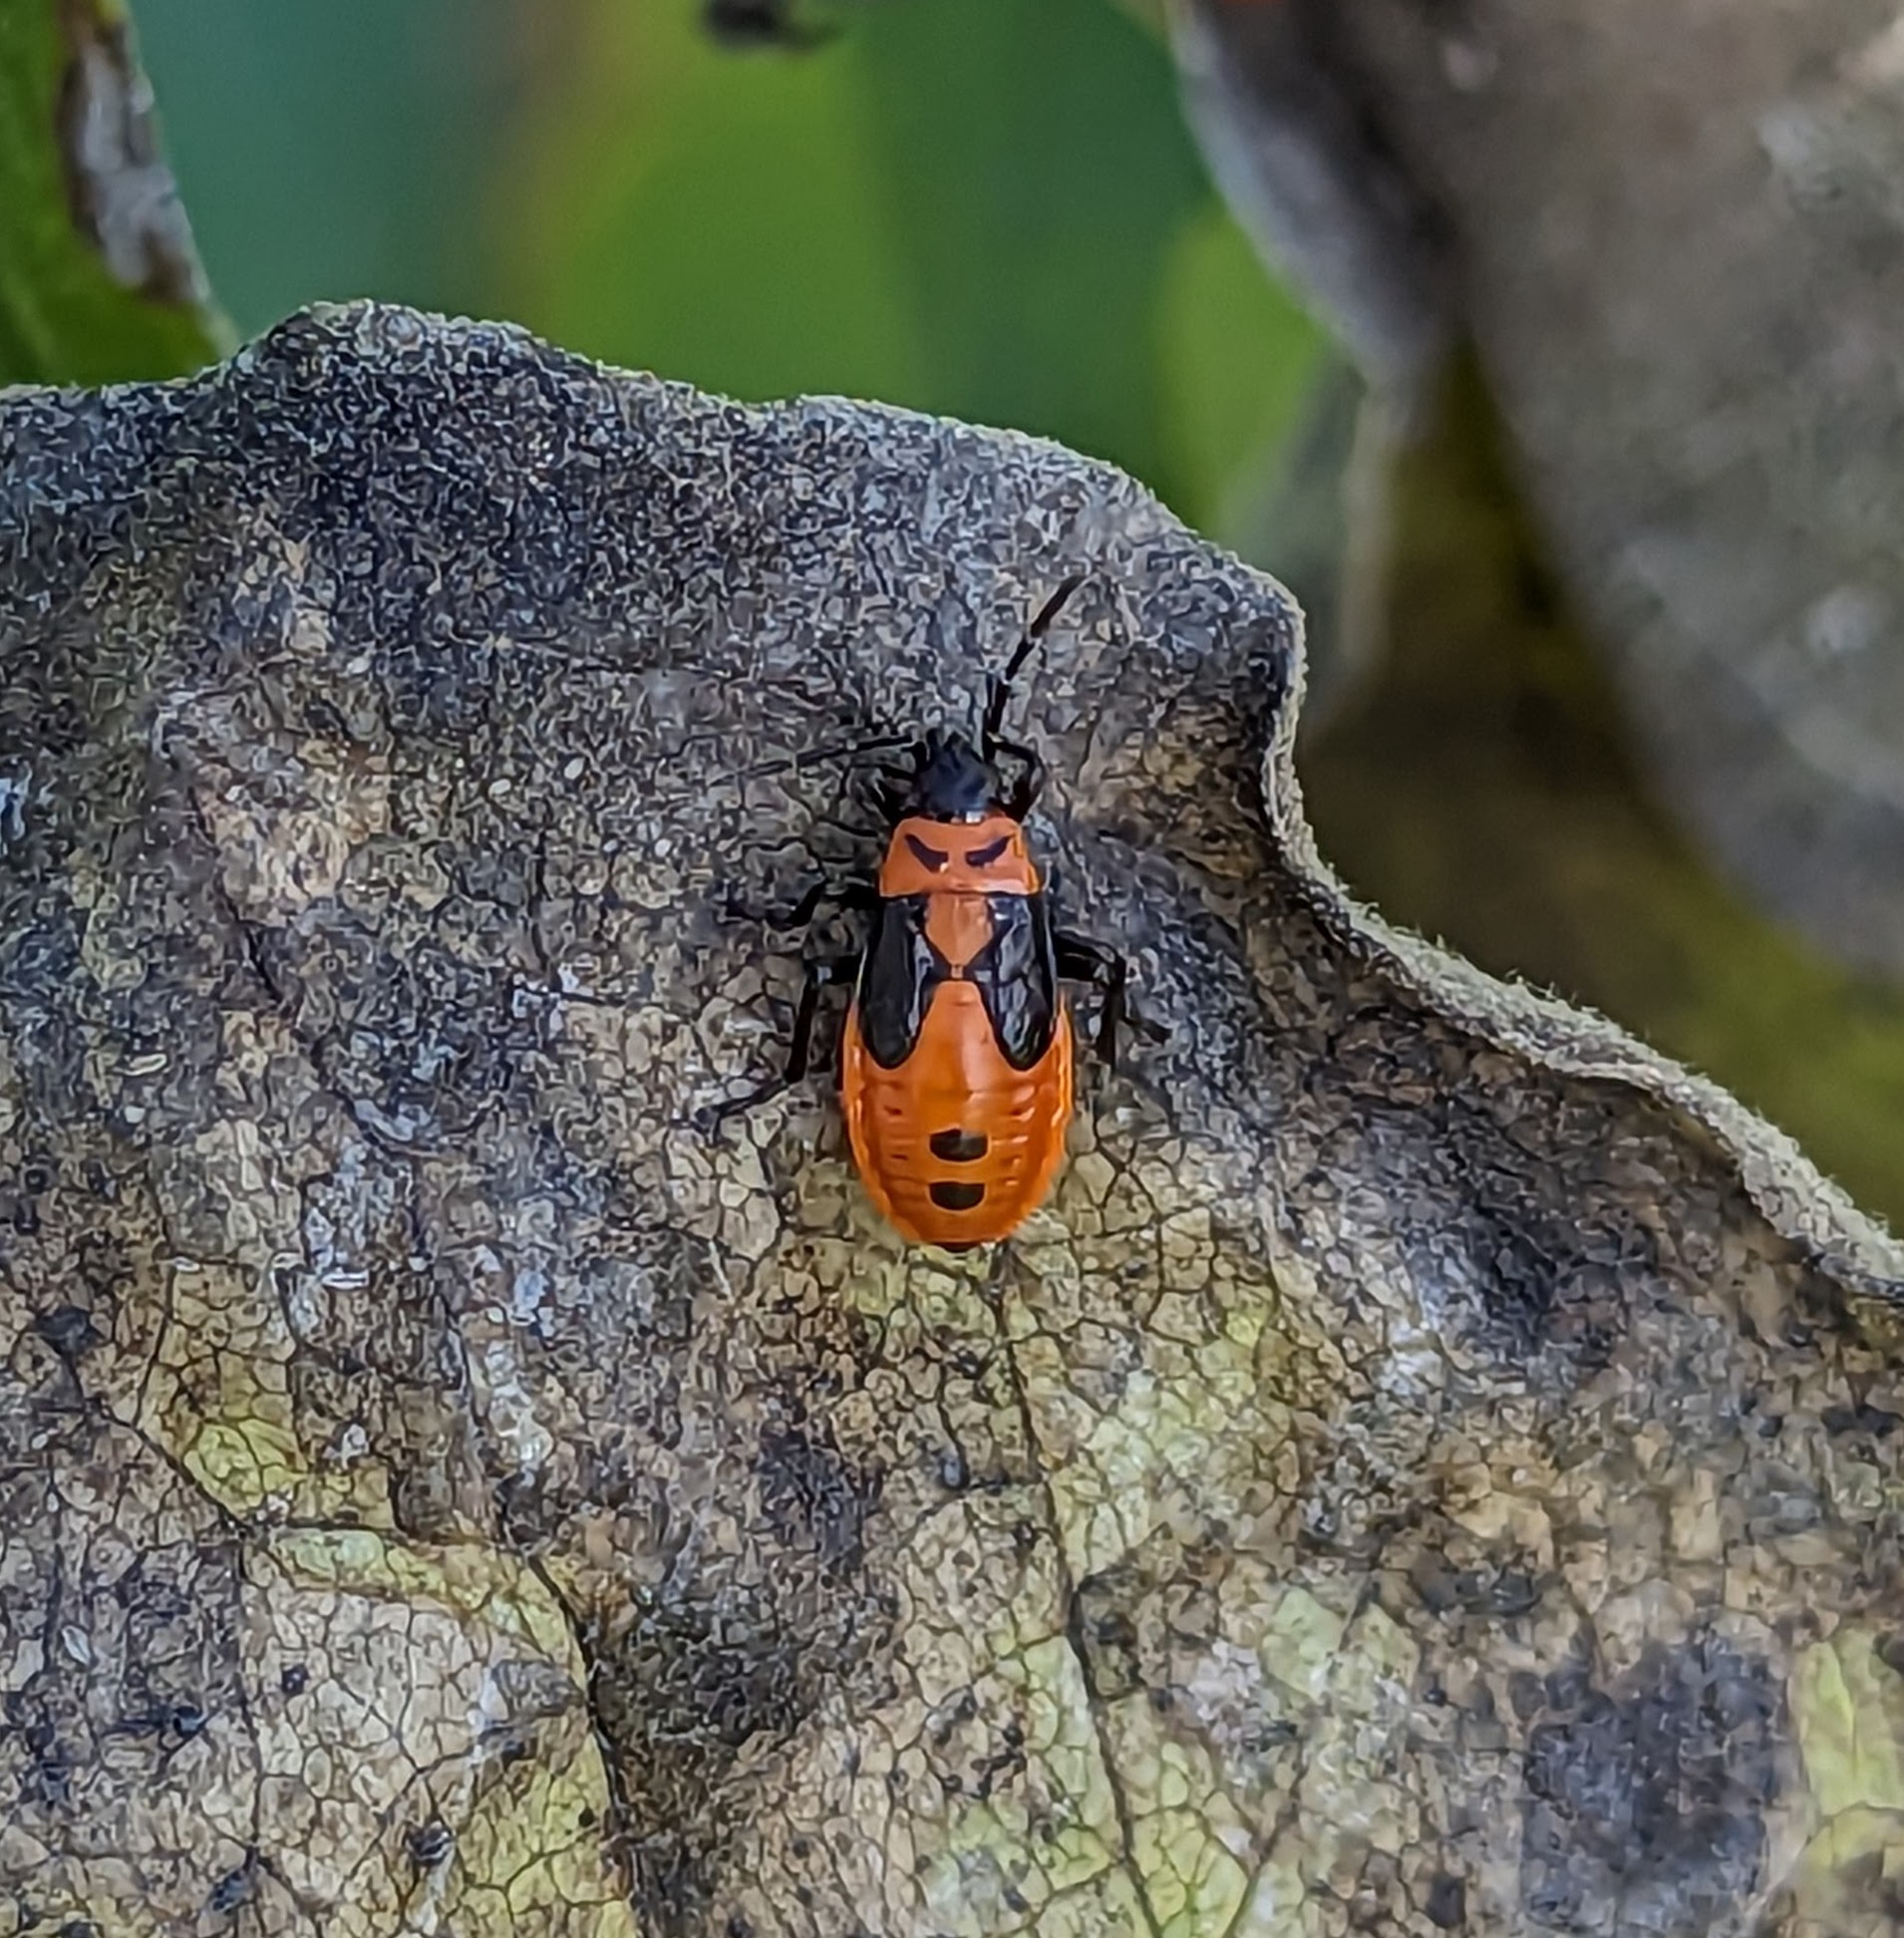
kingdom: Animalia
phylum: Arthropoda
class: Insecta
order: Hemiptera
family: Lygaeidae
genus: Lygaeus
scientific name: Lygaeus turcicus
